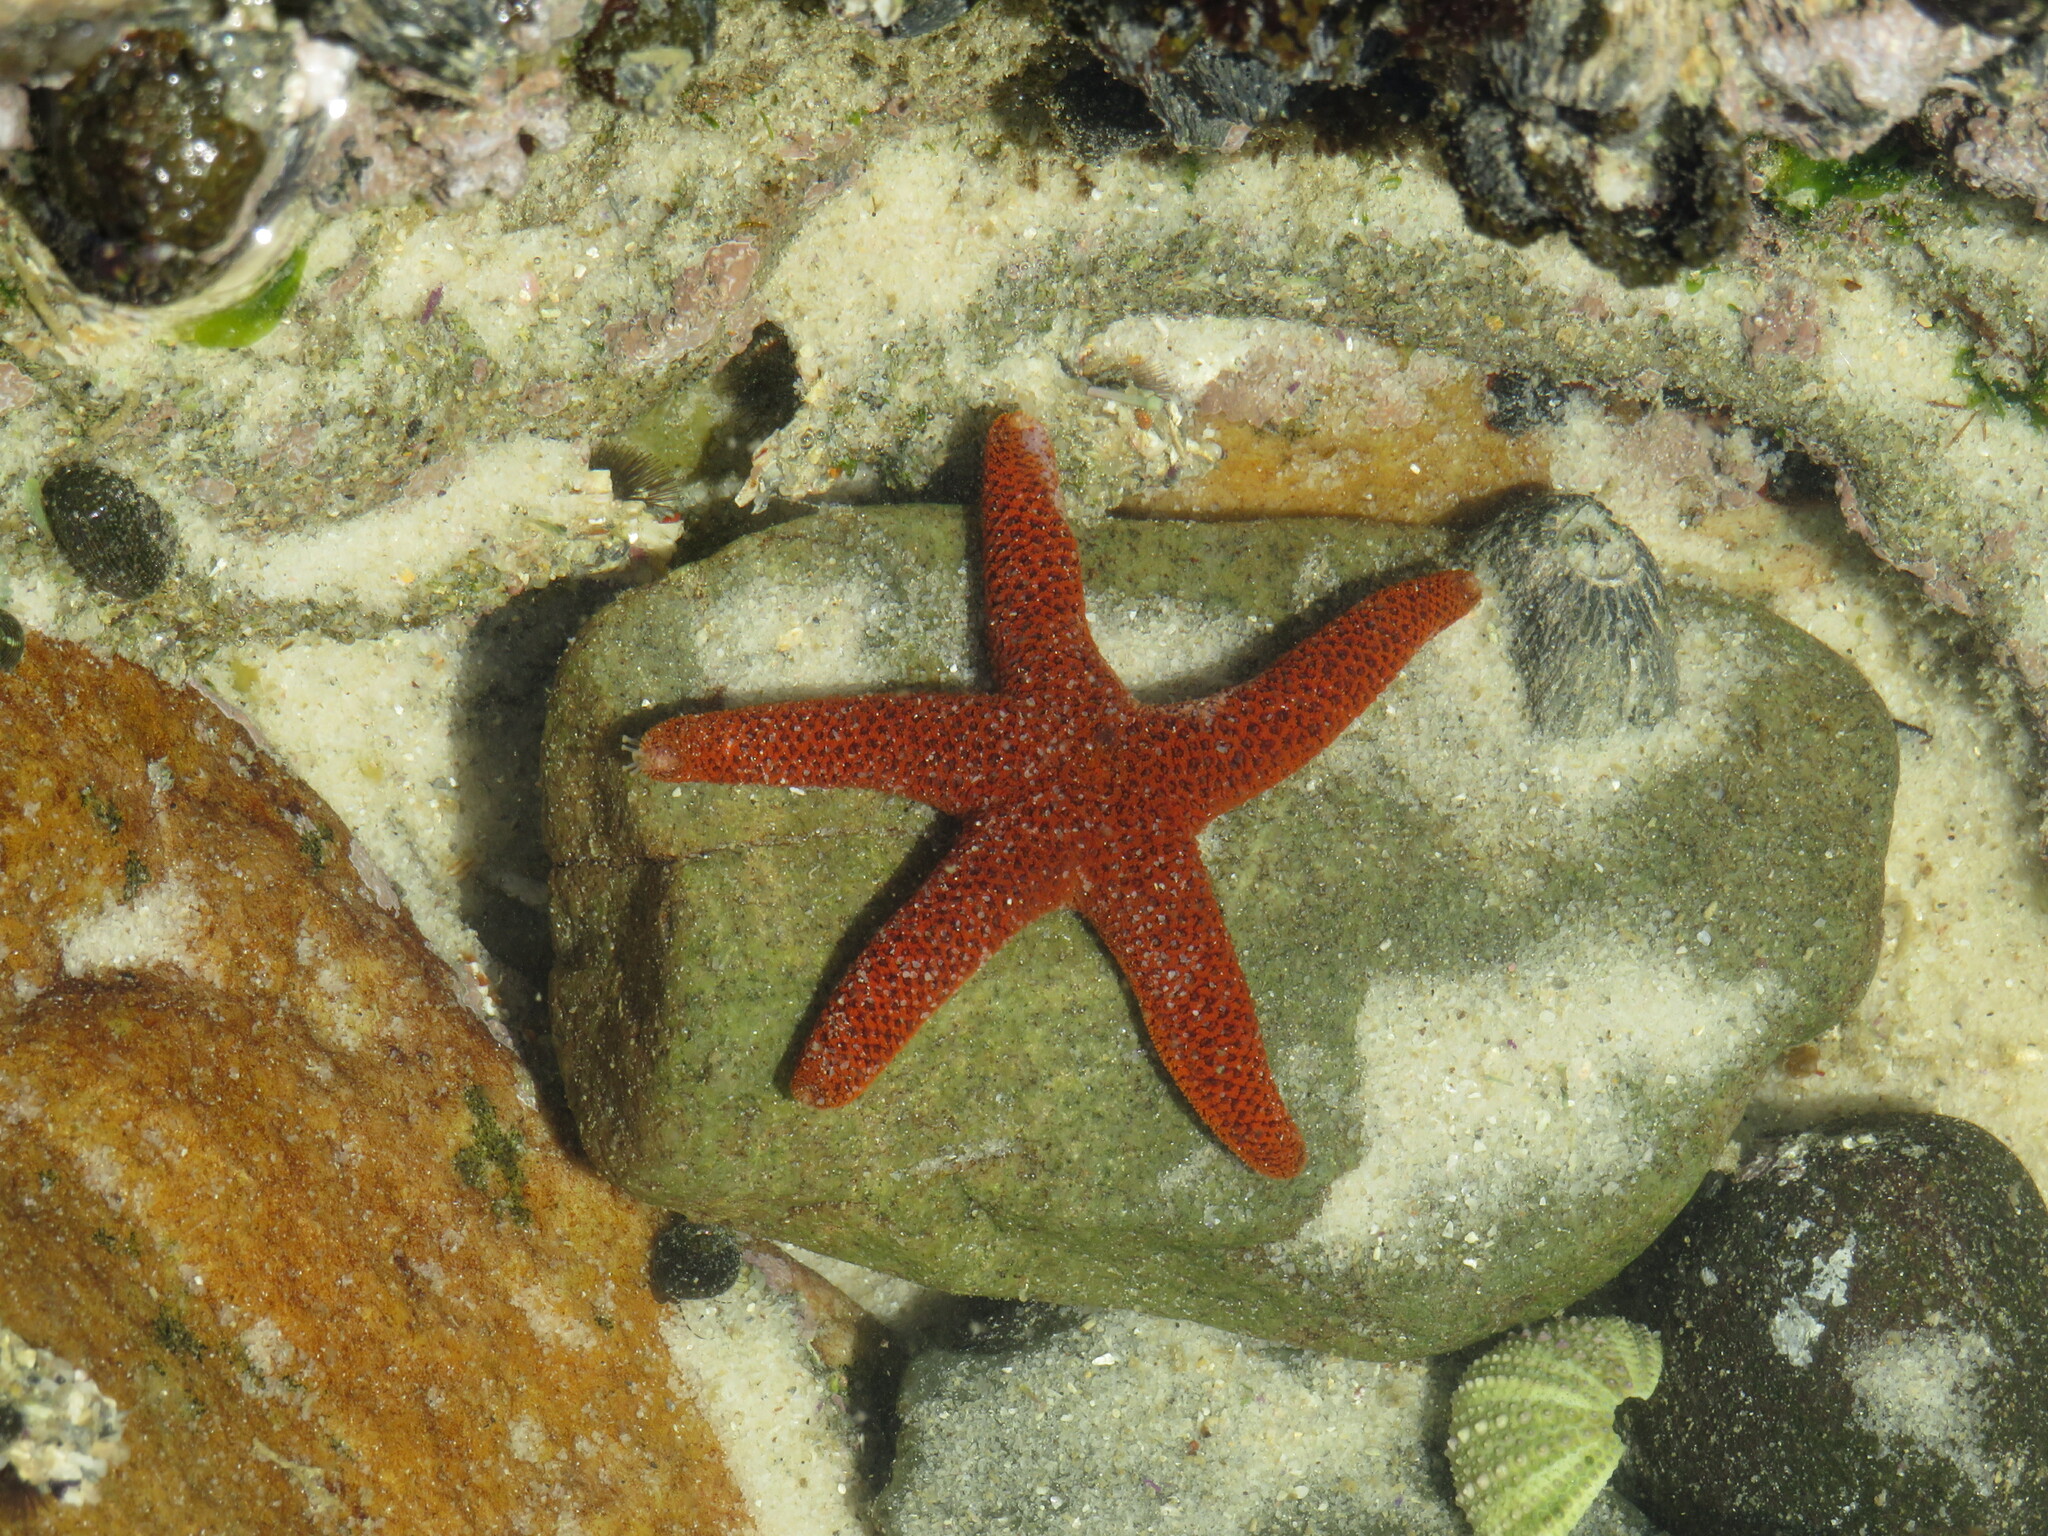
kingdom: Animalia
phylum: Echinodermata
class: Asteroidea
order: Spinulosida
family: Echinasteridae
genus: Henricia
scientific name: Henricia ornata
